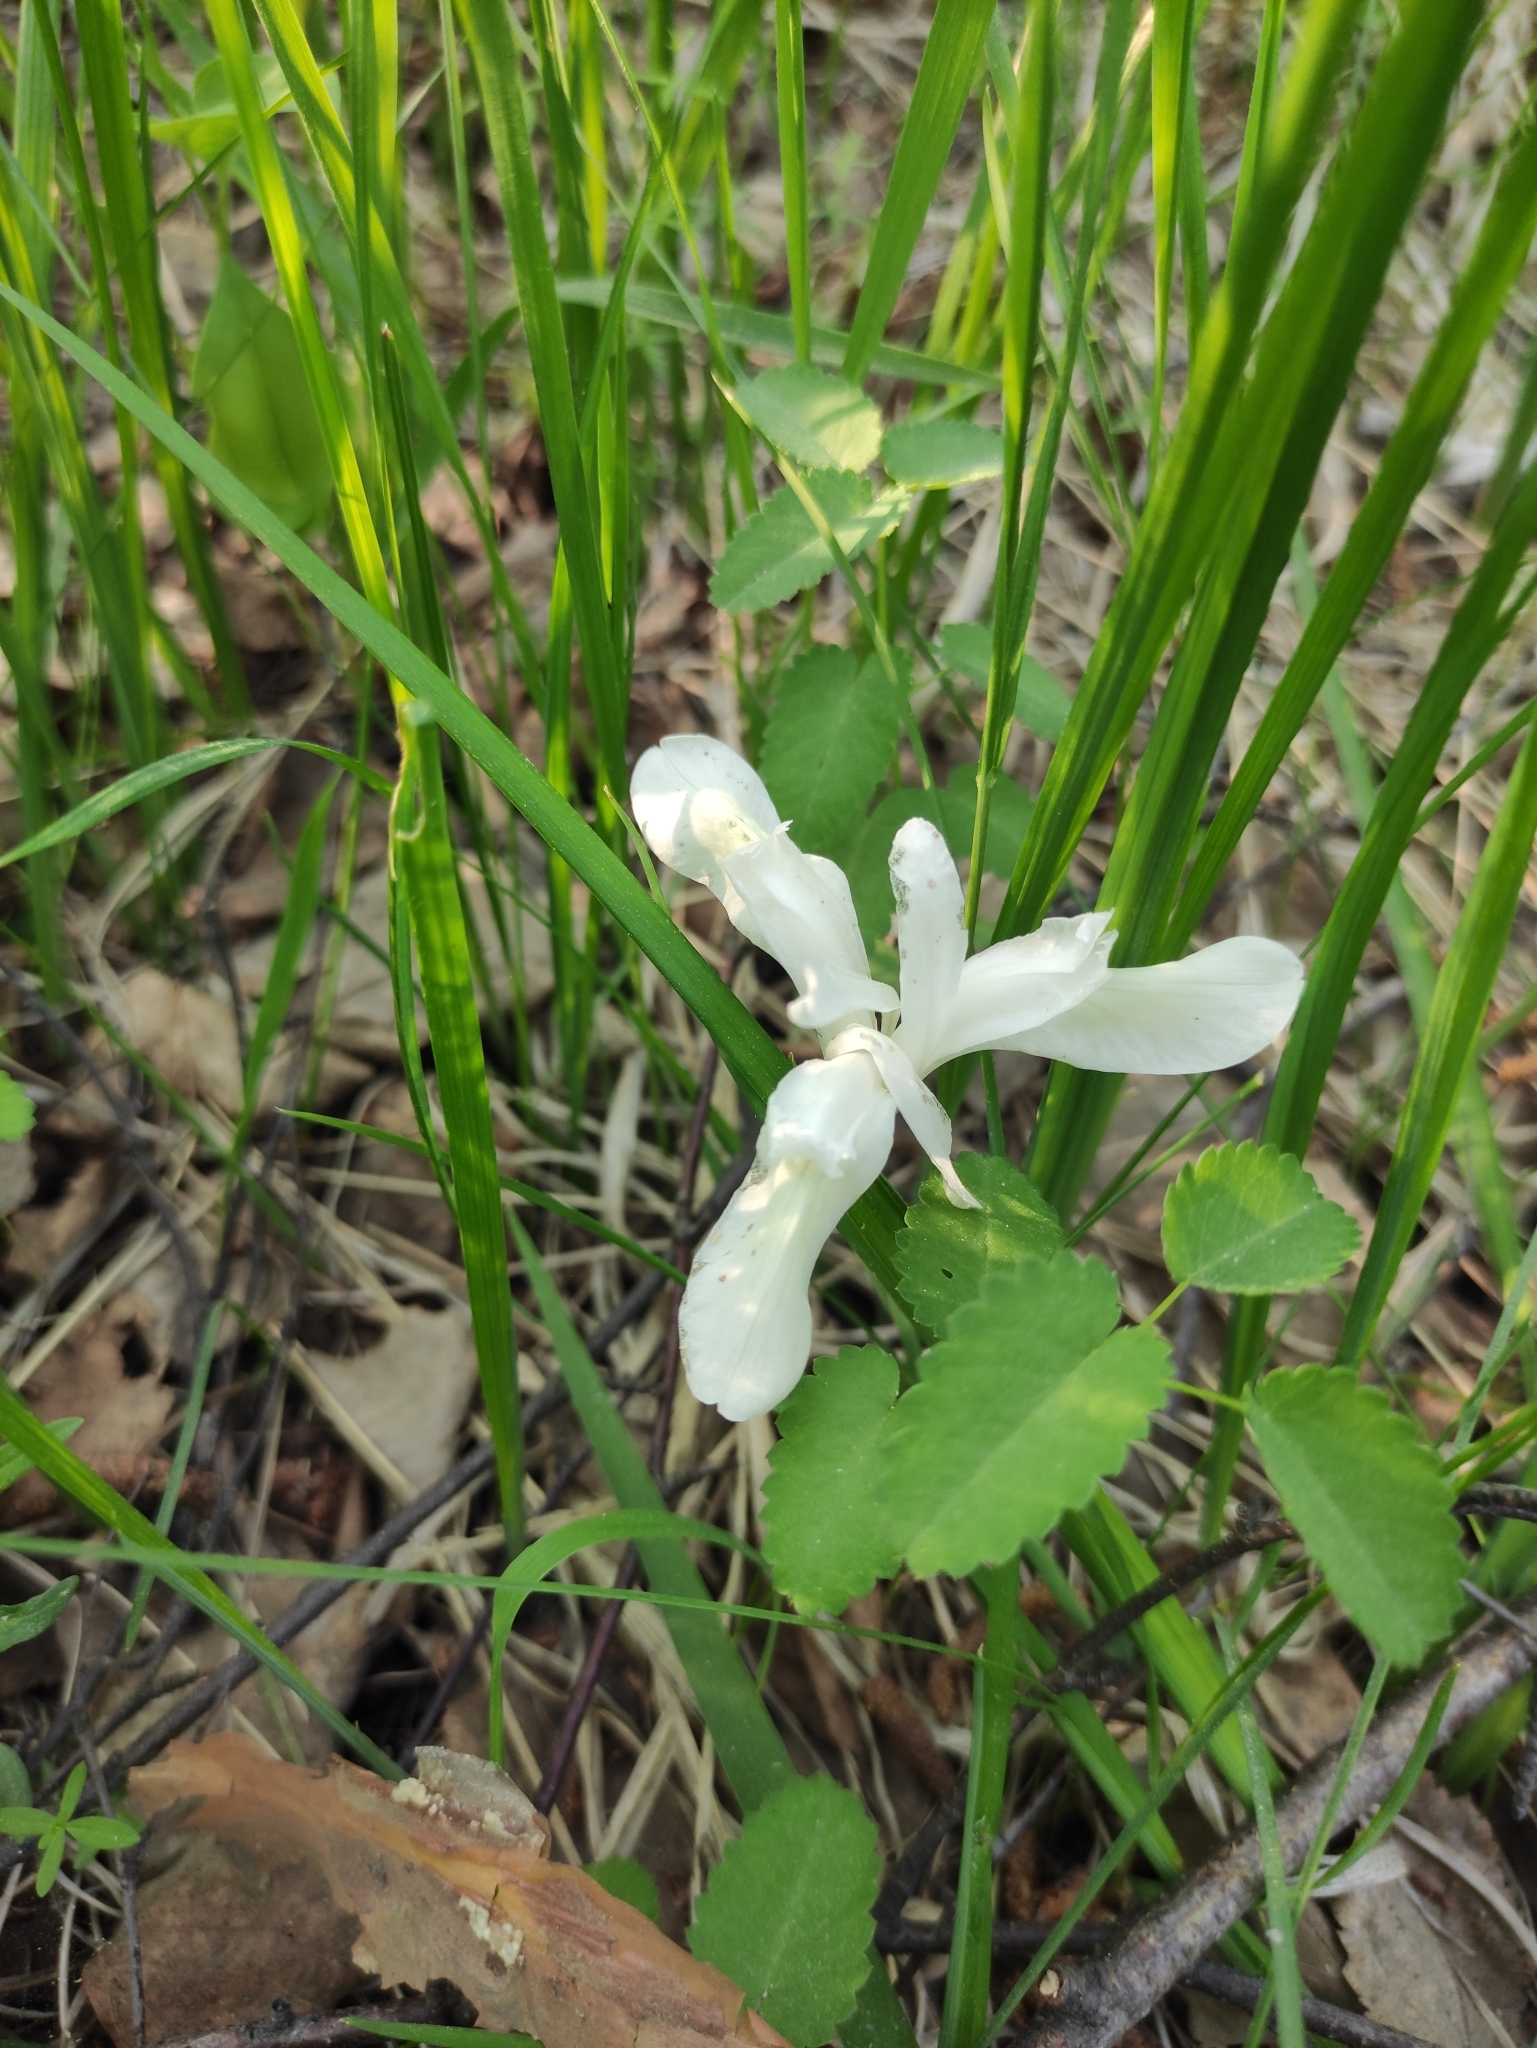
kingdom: Plantae
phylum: Tracheophyta
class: Liliopsida
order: Asparagales
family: Iridaceae
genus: Iris
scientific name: Iris ruthenica
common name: Purple-bract iris
